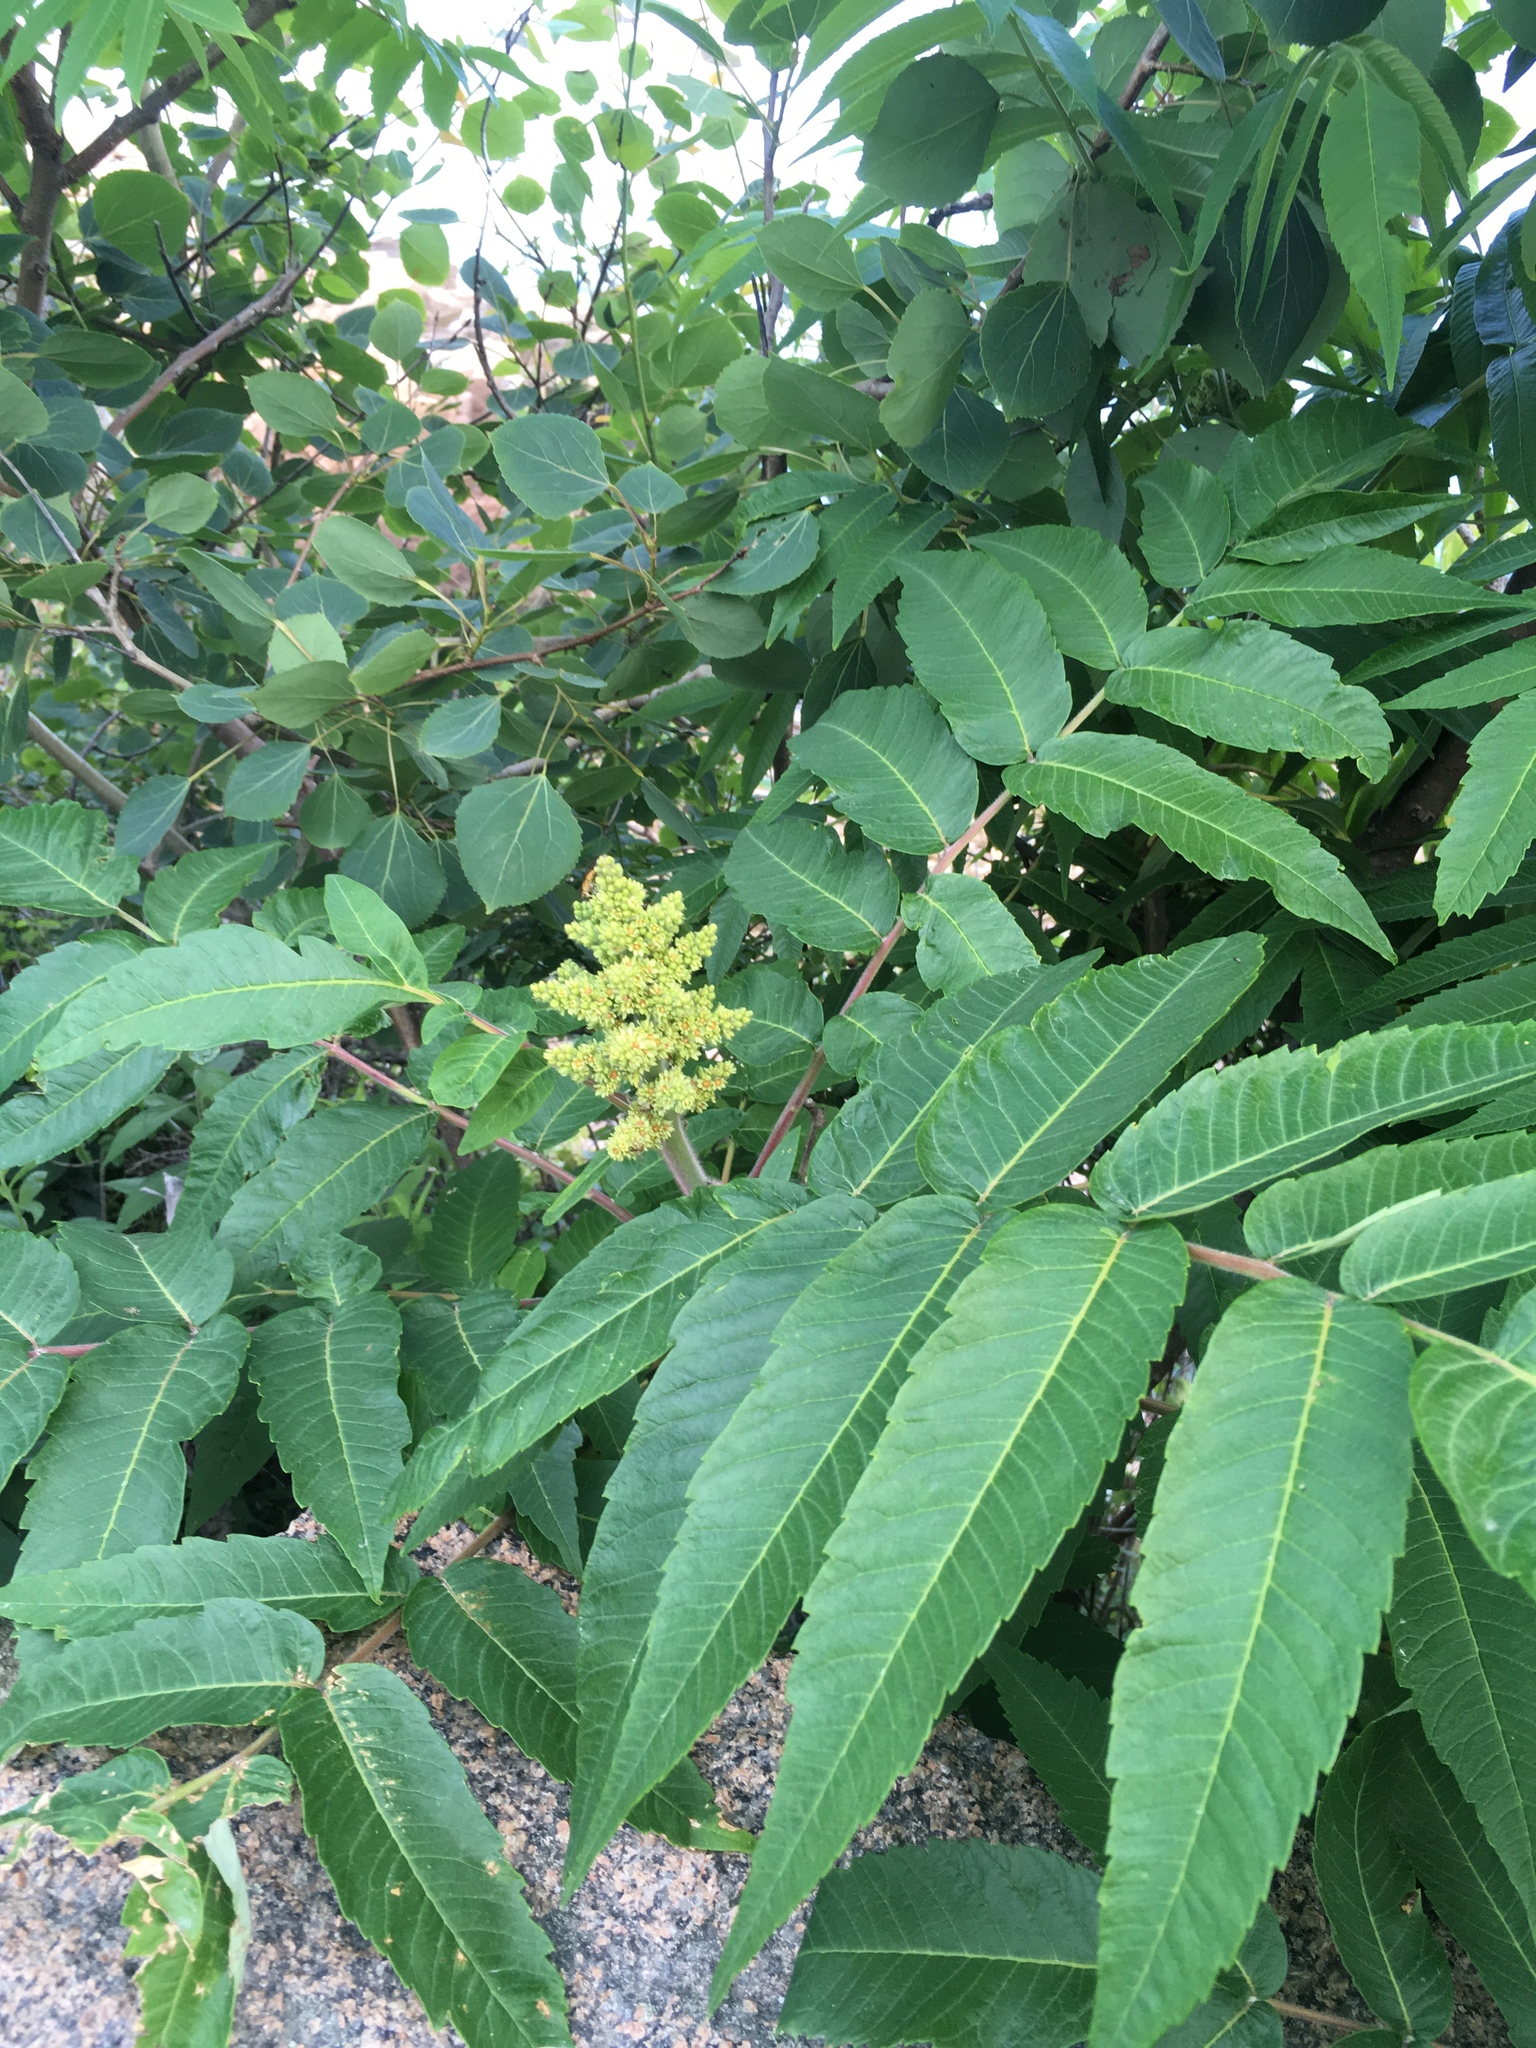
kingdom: Plantae
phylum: Tracheophyta
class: Magnoliopsida
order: Sapindales
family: Anacardiaceae
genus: Rhus
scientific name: Rhus typhina
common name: Staghorn sumac
